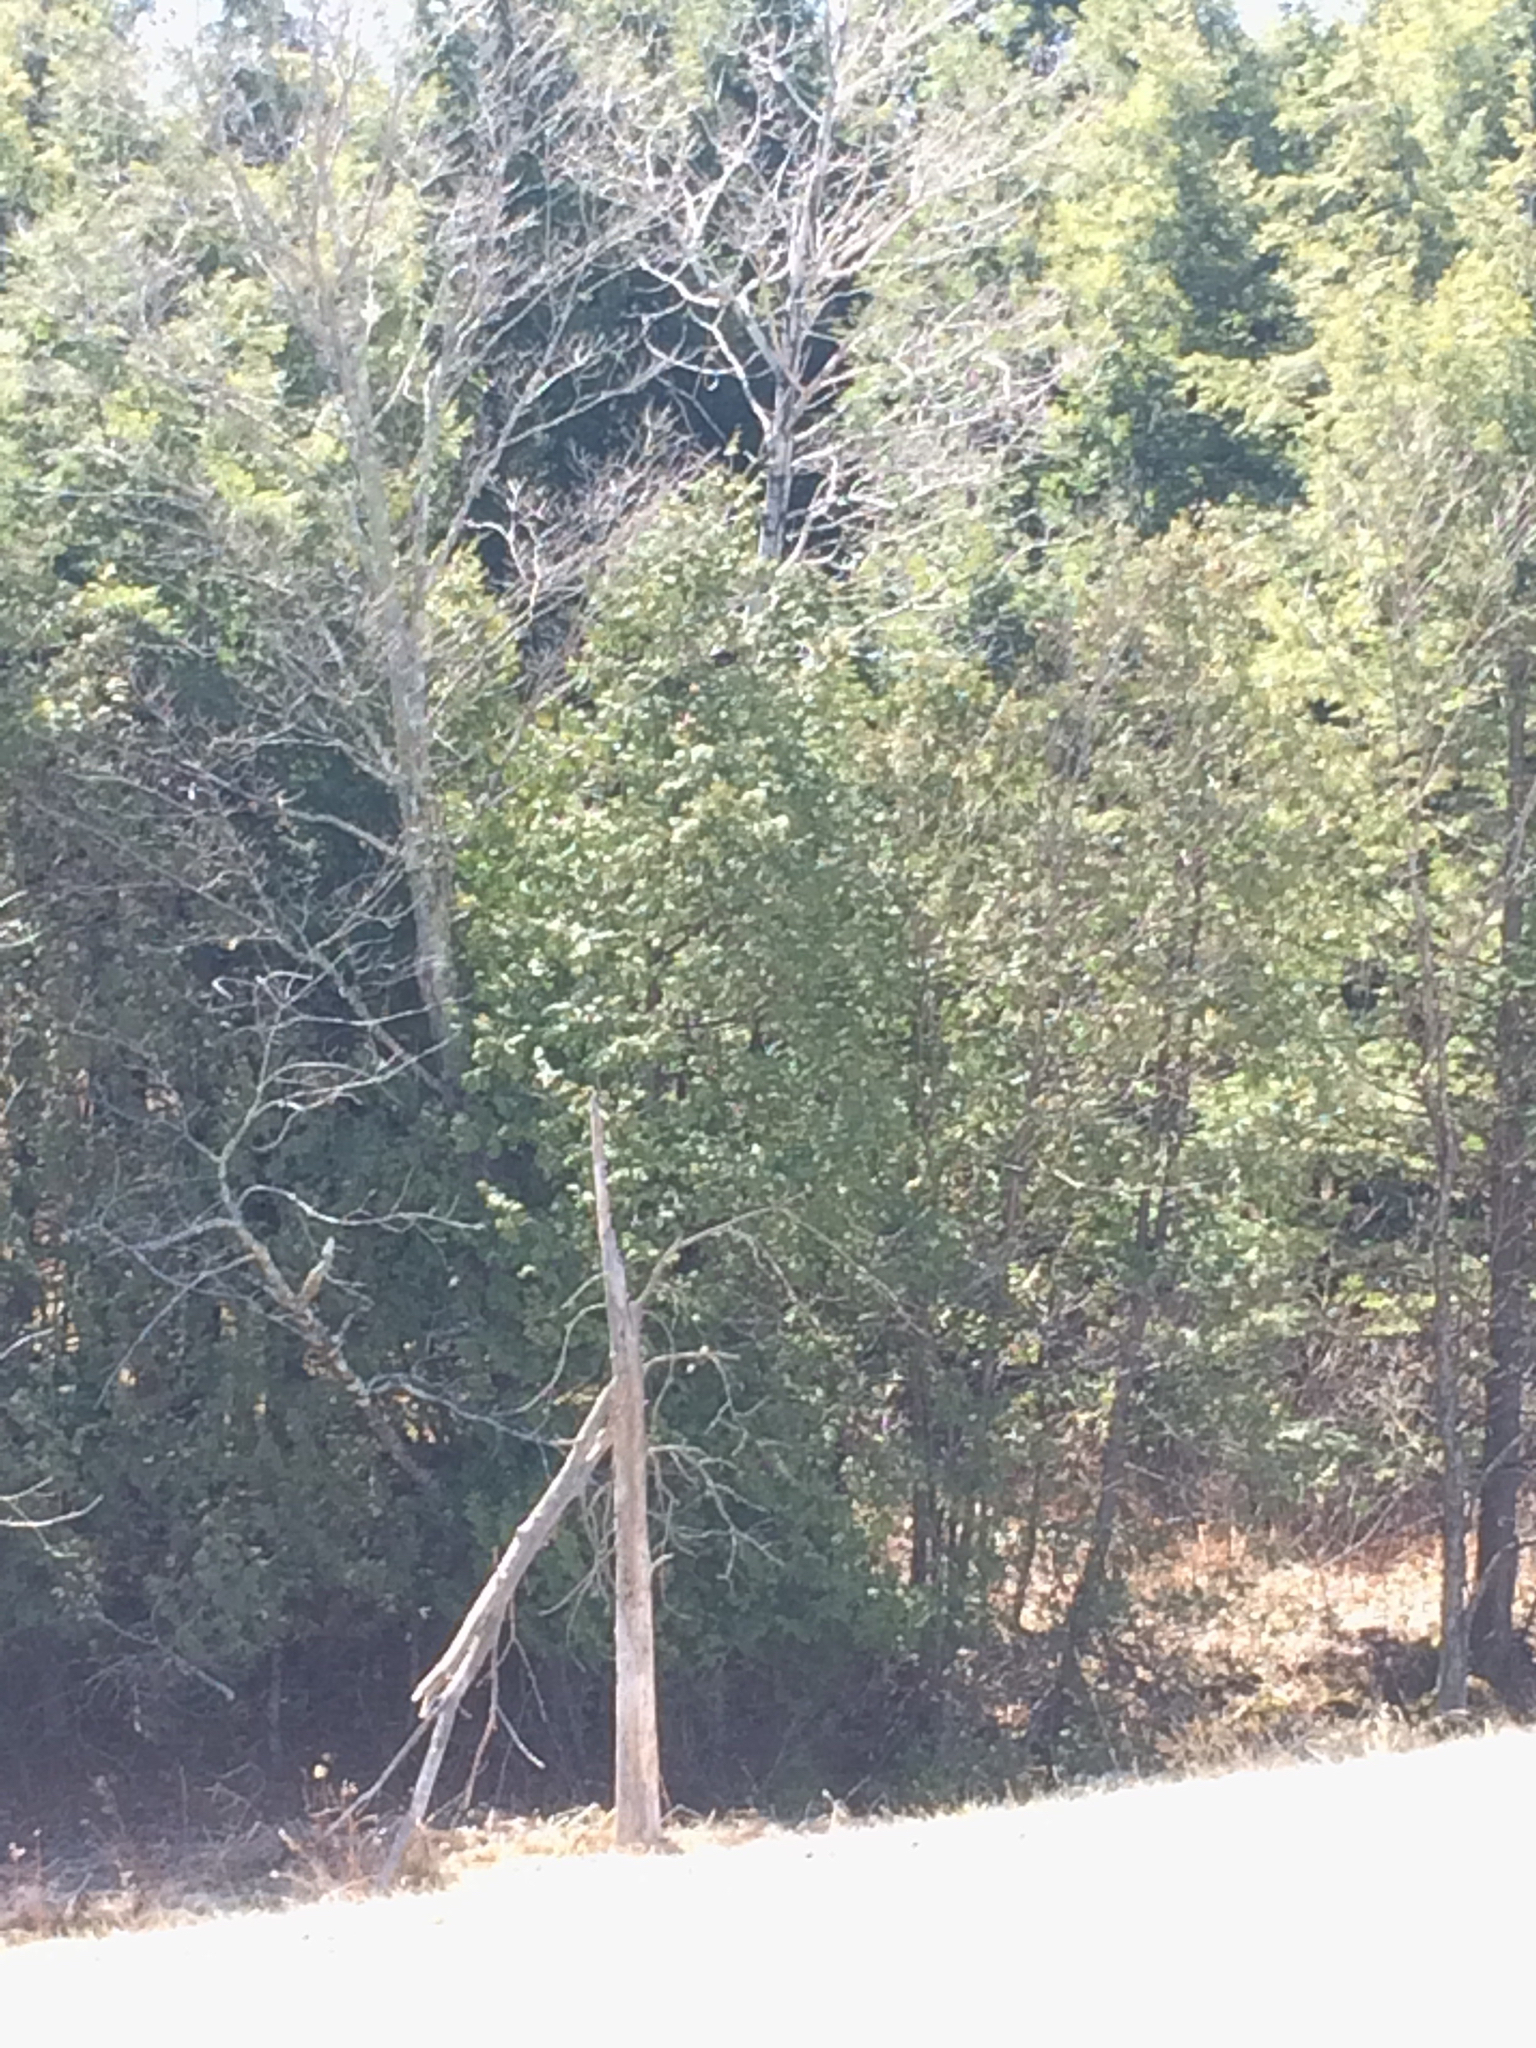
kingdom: Plantae
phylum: Tracheophyta
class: Pinopsida
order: Pinales
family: Cupressaceae
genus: Thuja
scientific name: Thuja occidentalis
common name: Northern white-cedar
